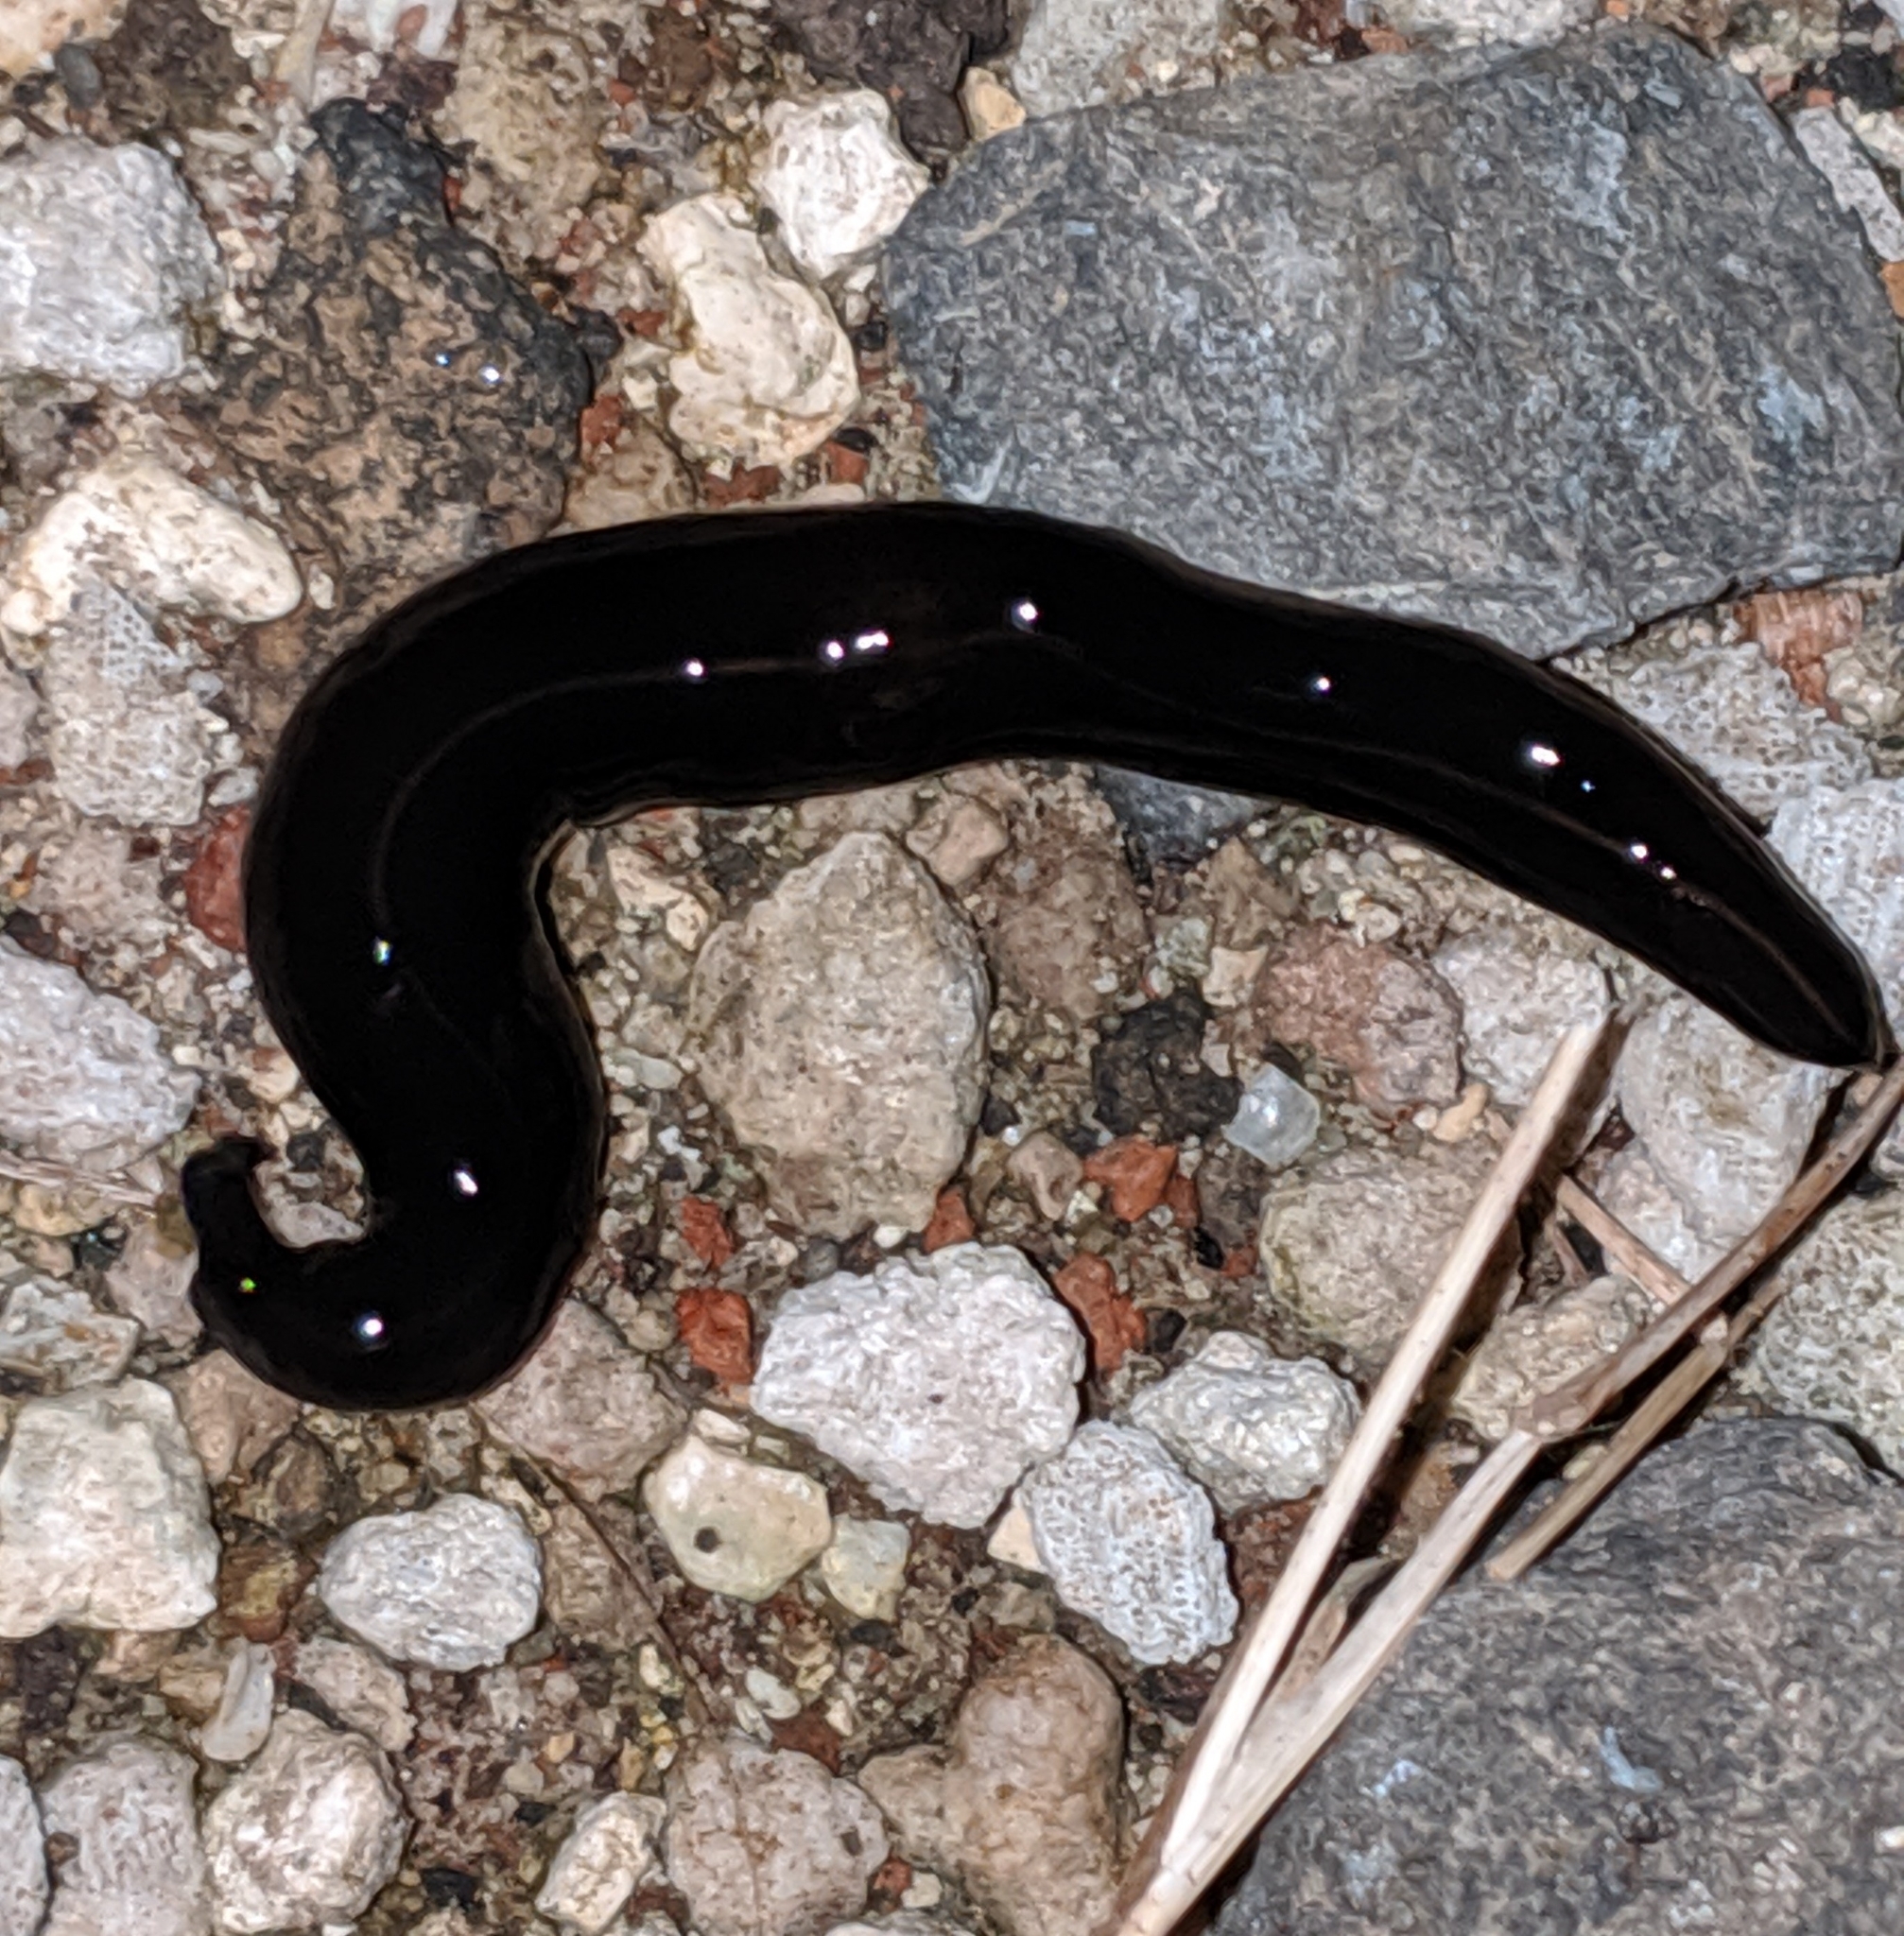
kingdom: Animalia
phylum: Platyhelminthes
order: Tricladida
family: Geoplanidae
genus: Platydemus
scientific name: Platydemus manokwari
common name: New guinea flatworm
